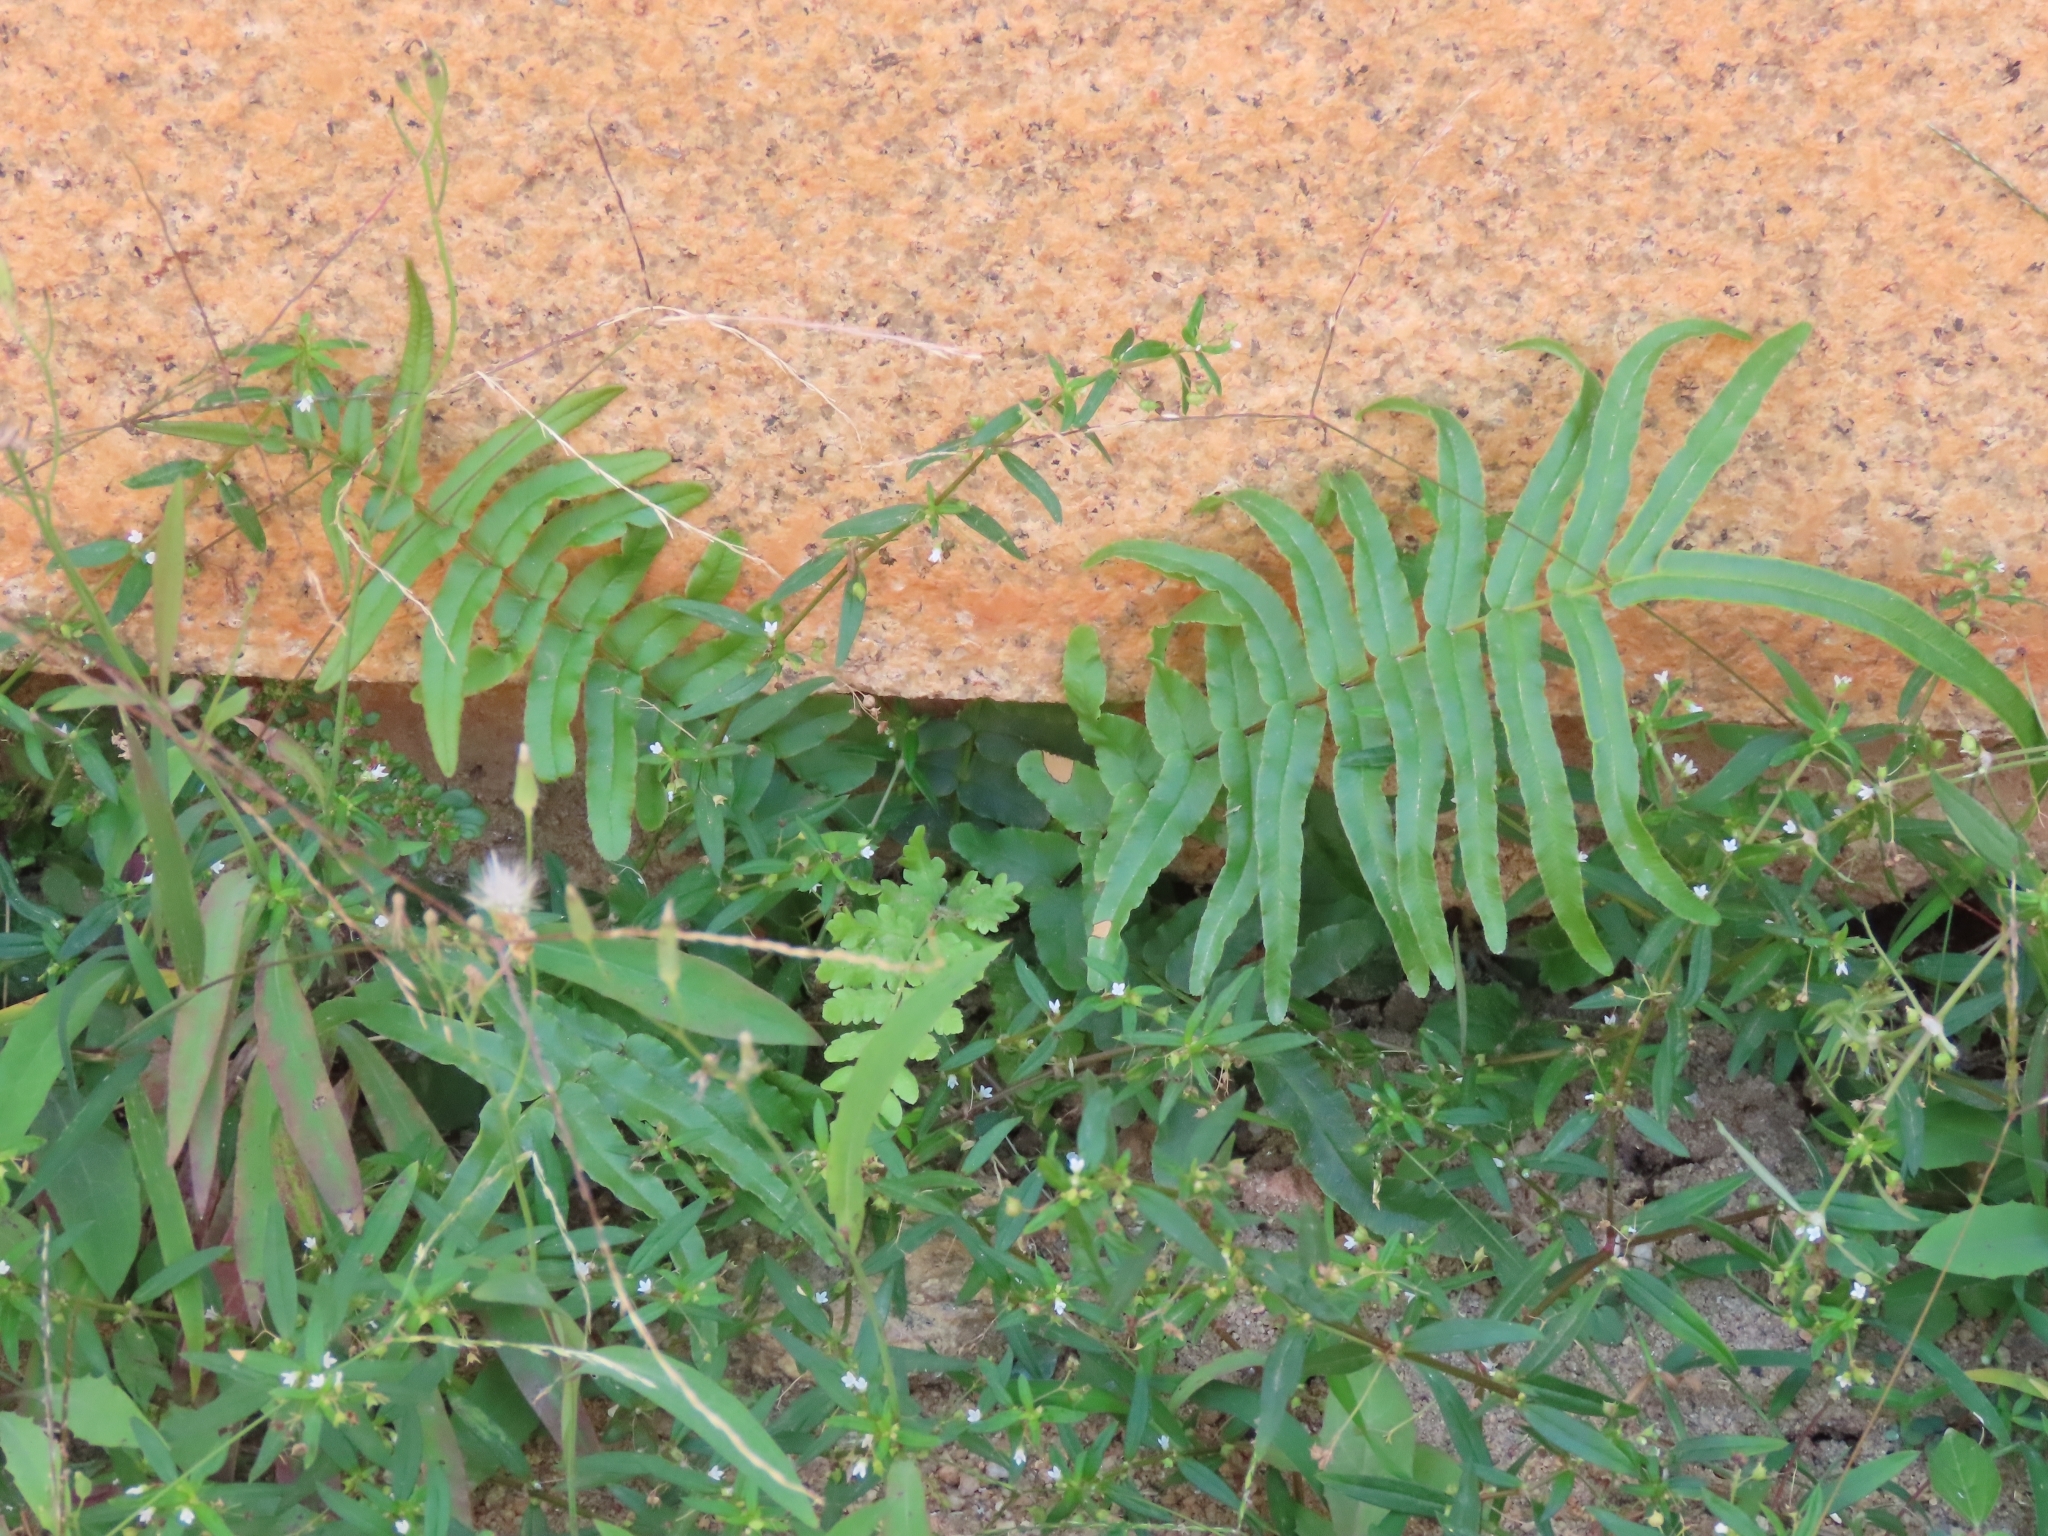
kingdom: Plantae
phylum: Tracheophyta
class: Polypodiopsida
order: Polypodiales
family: Pteridaceae
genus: Pteris
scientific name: Pteris vittata
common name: Ladder brake
